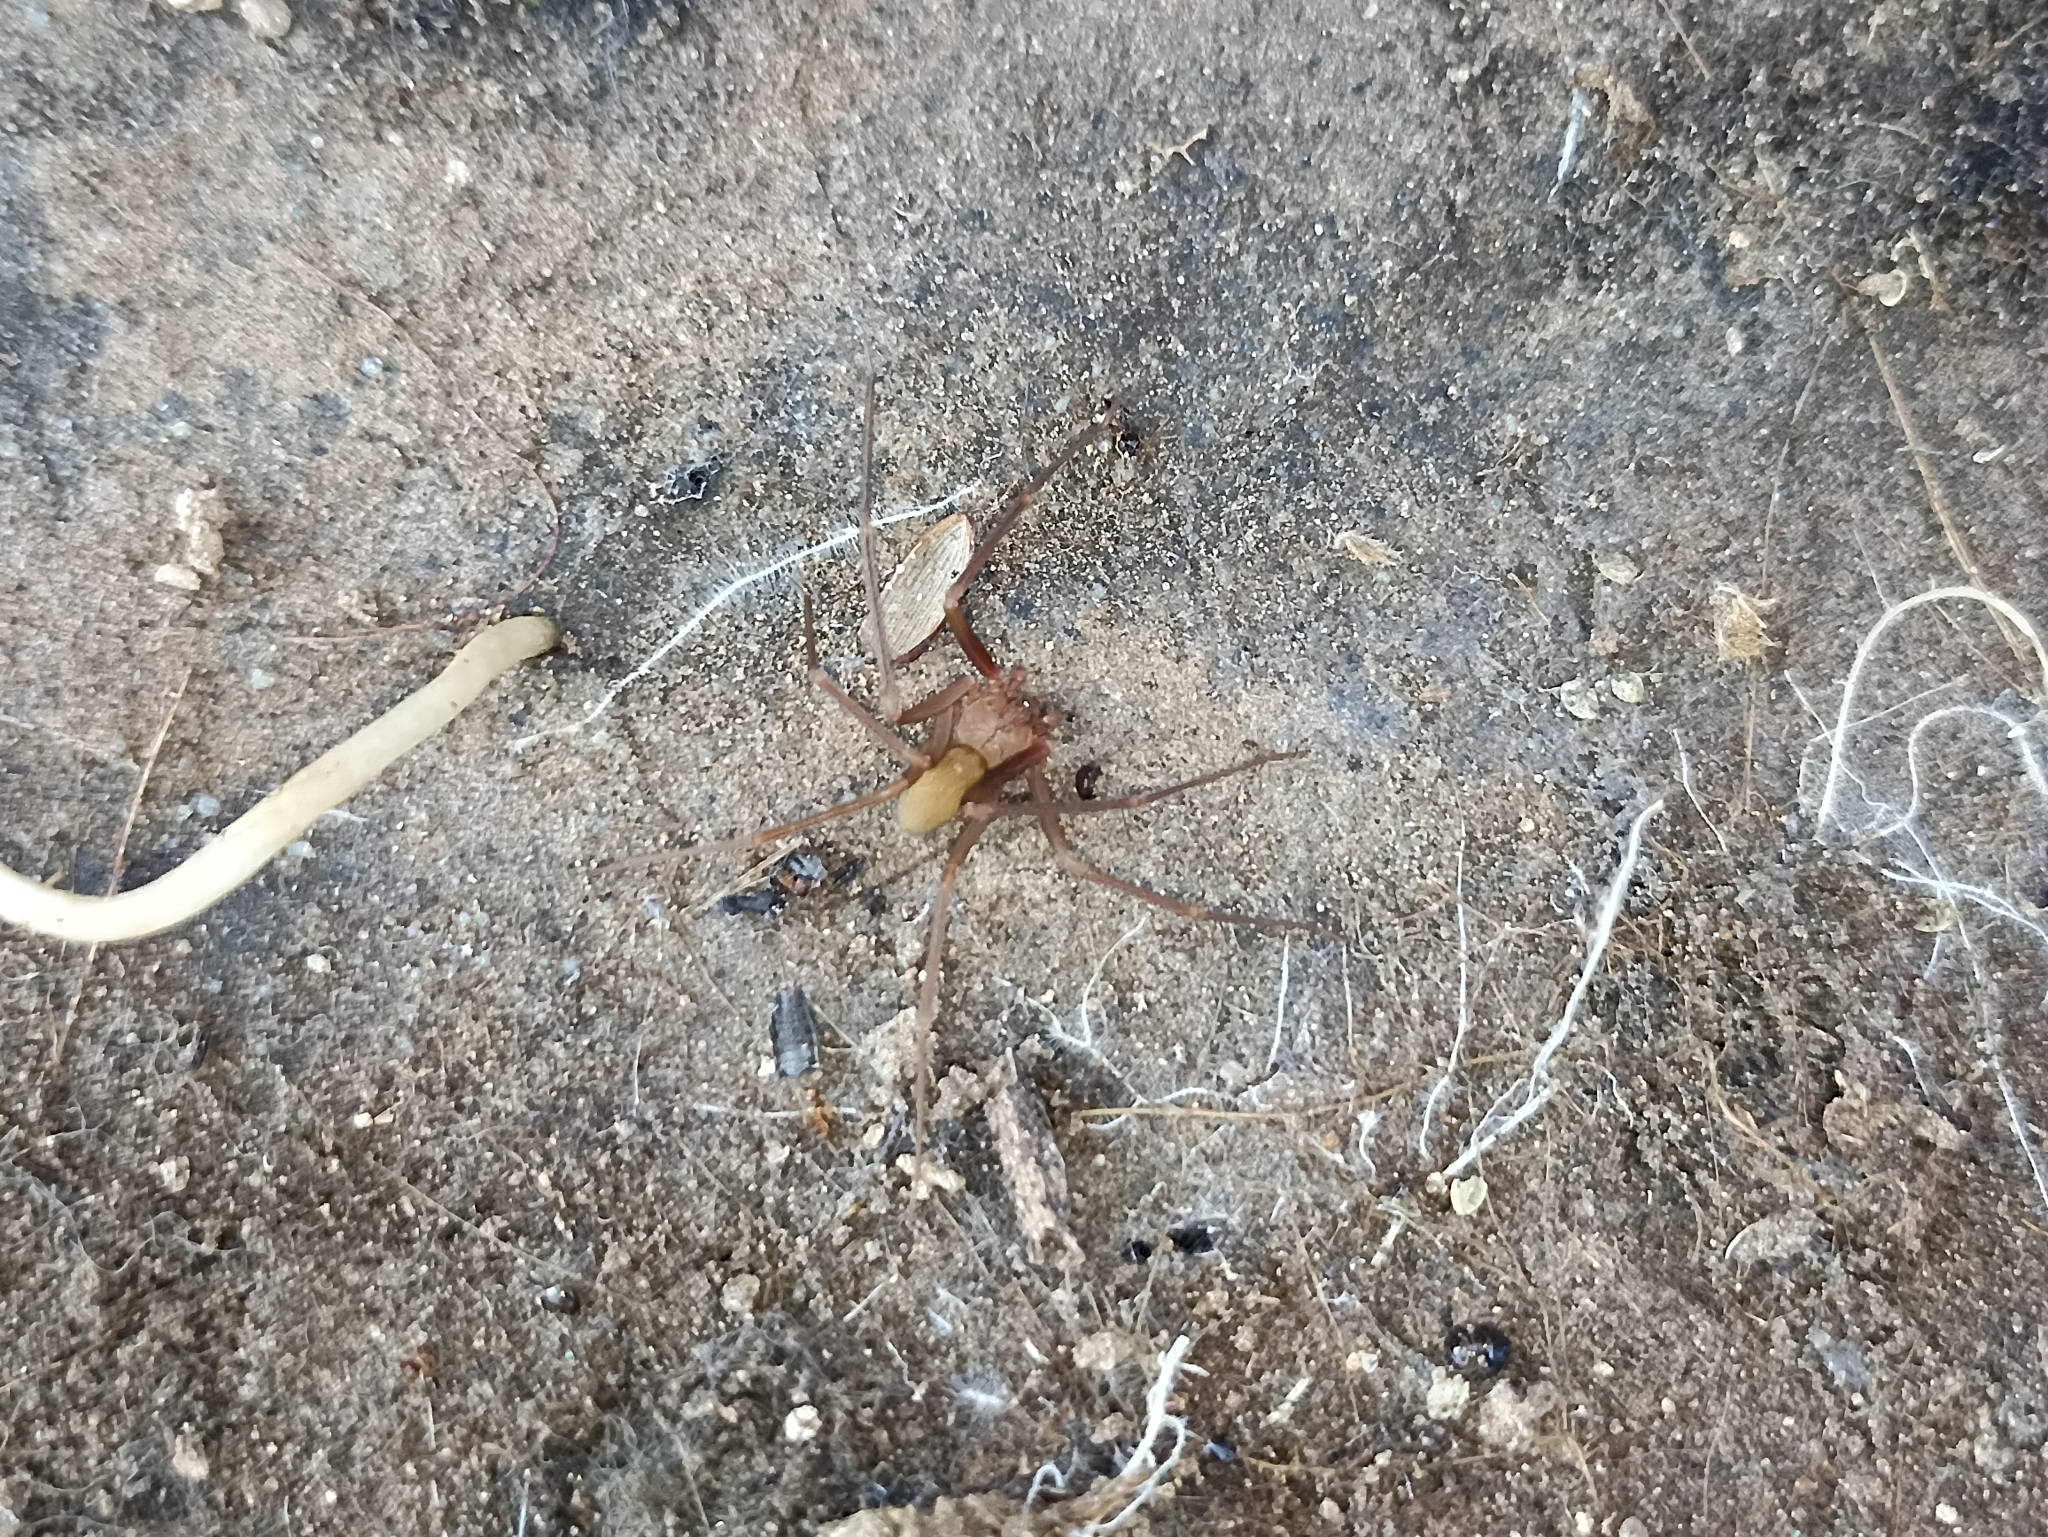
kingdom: Animalia
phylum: Arthropoda
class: Arachnida
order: Araneae
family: Sicariidae
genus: Loxosceles
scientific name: Loxosceles rufescens
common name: Mediterranean recluse spider
